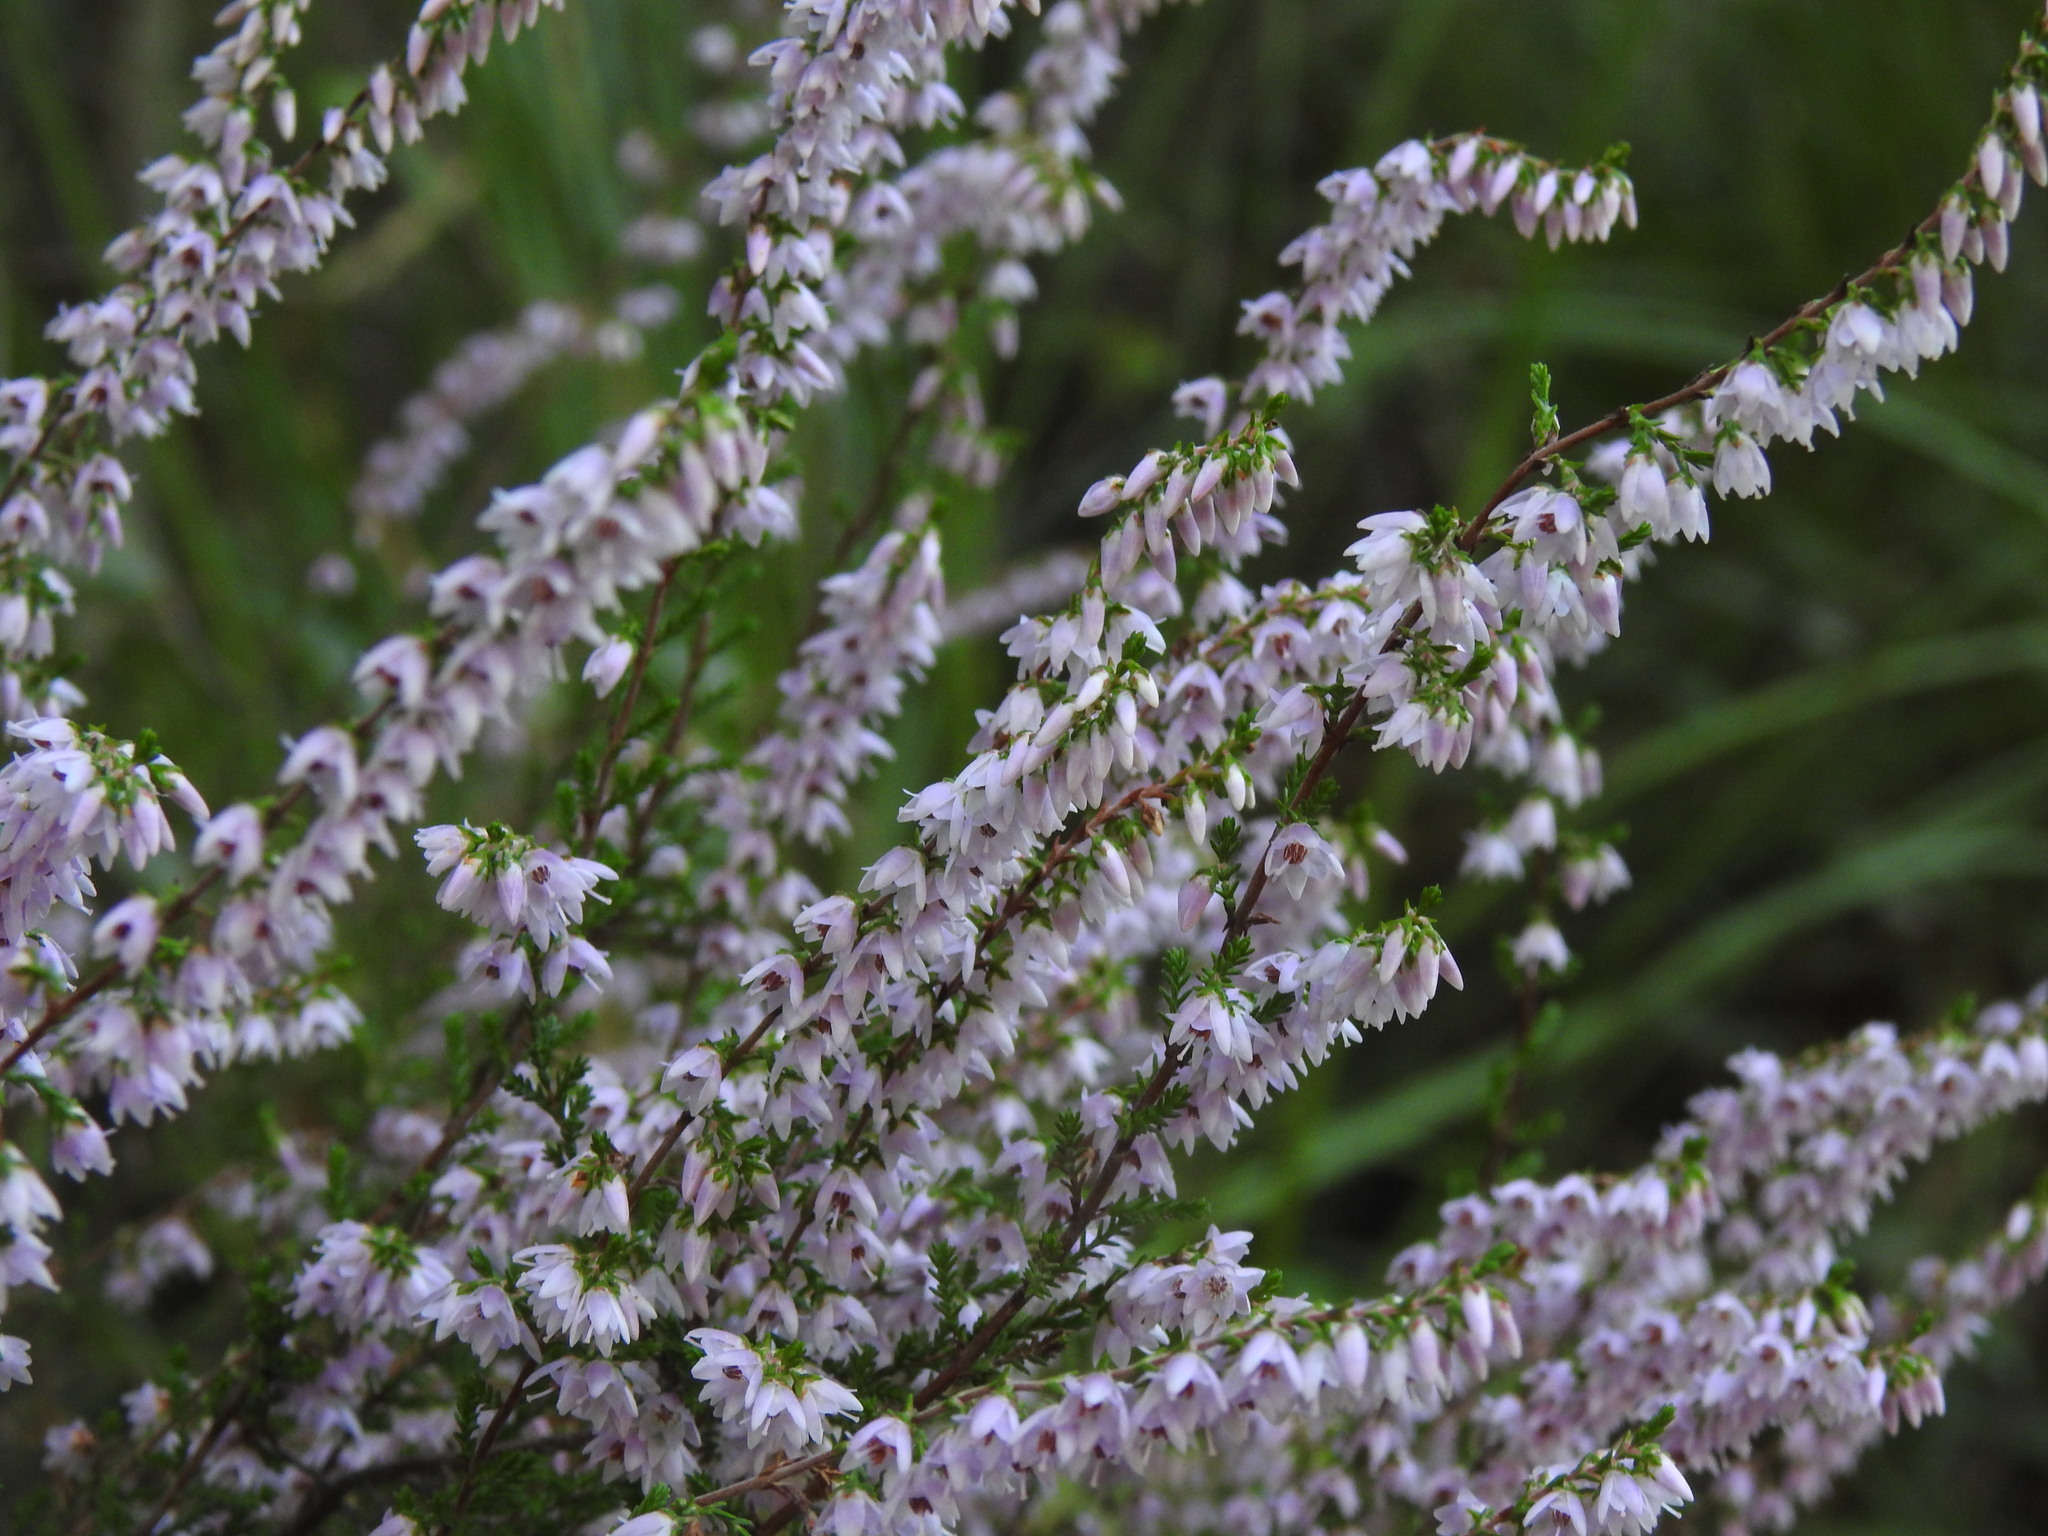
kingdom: Plantae
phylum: Tracheophyta
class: Magnoliopsida
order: Ericales
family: Ericaceae
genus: Calluna
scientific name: Calluna vulgaris
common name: Heather
